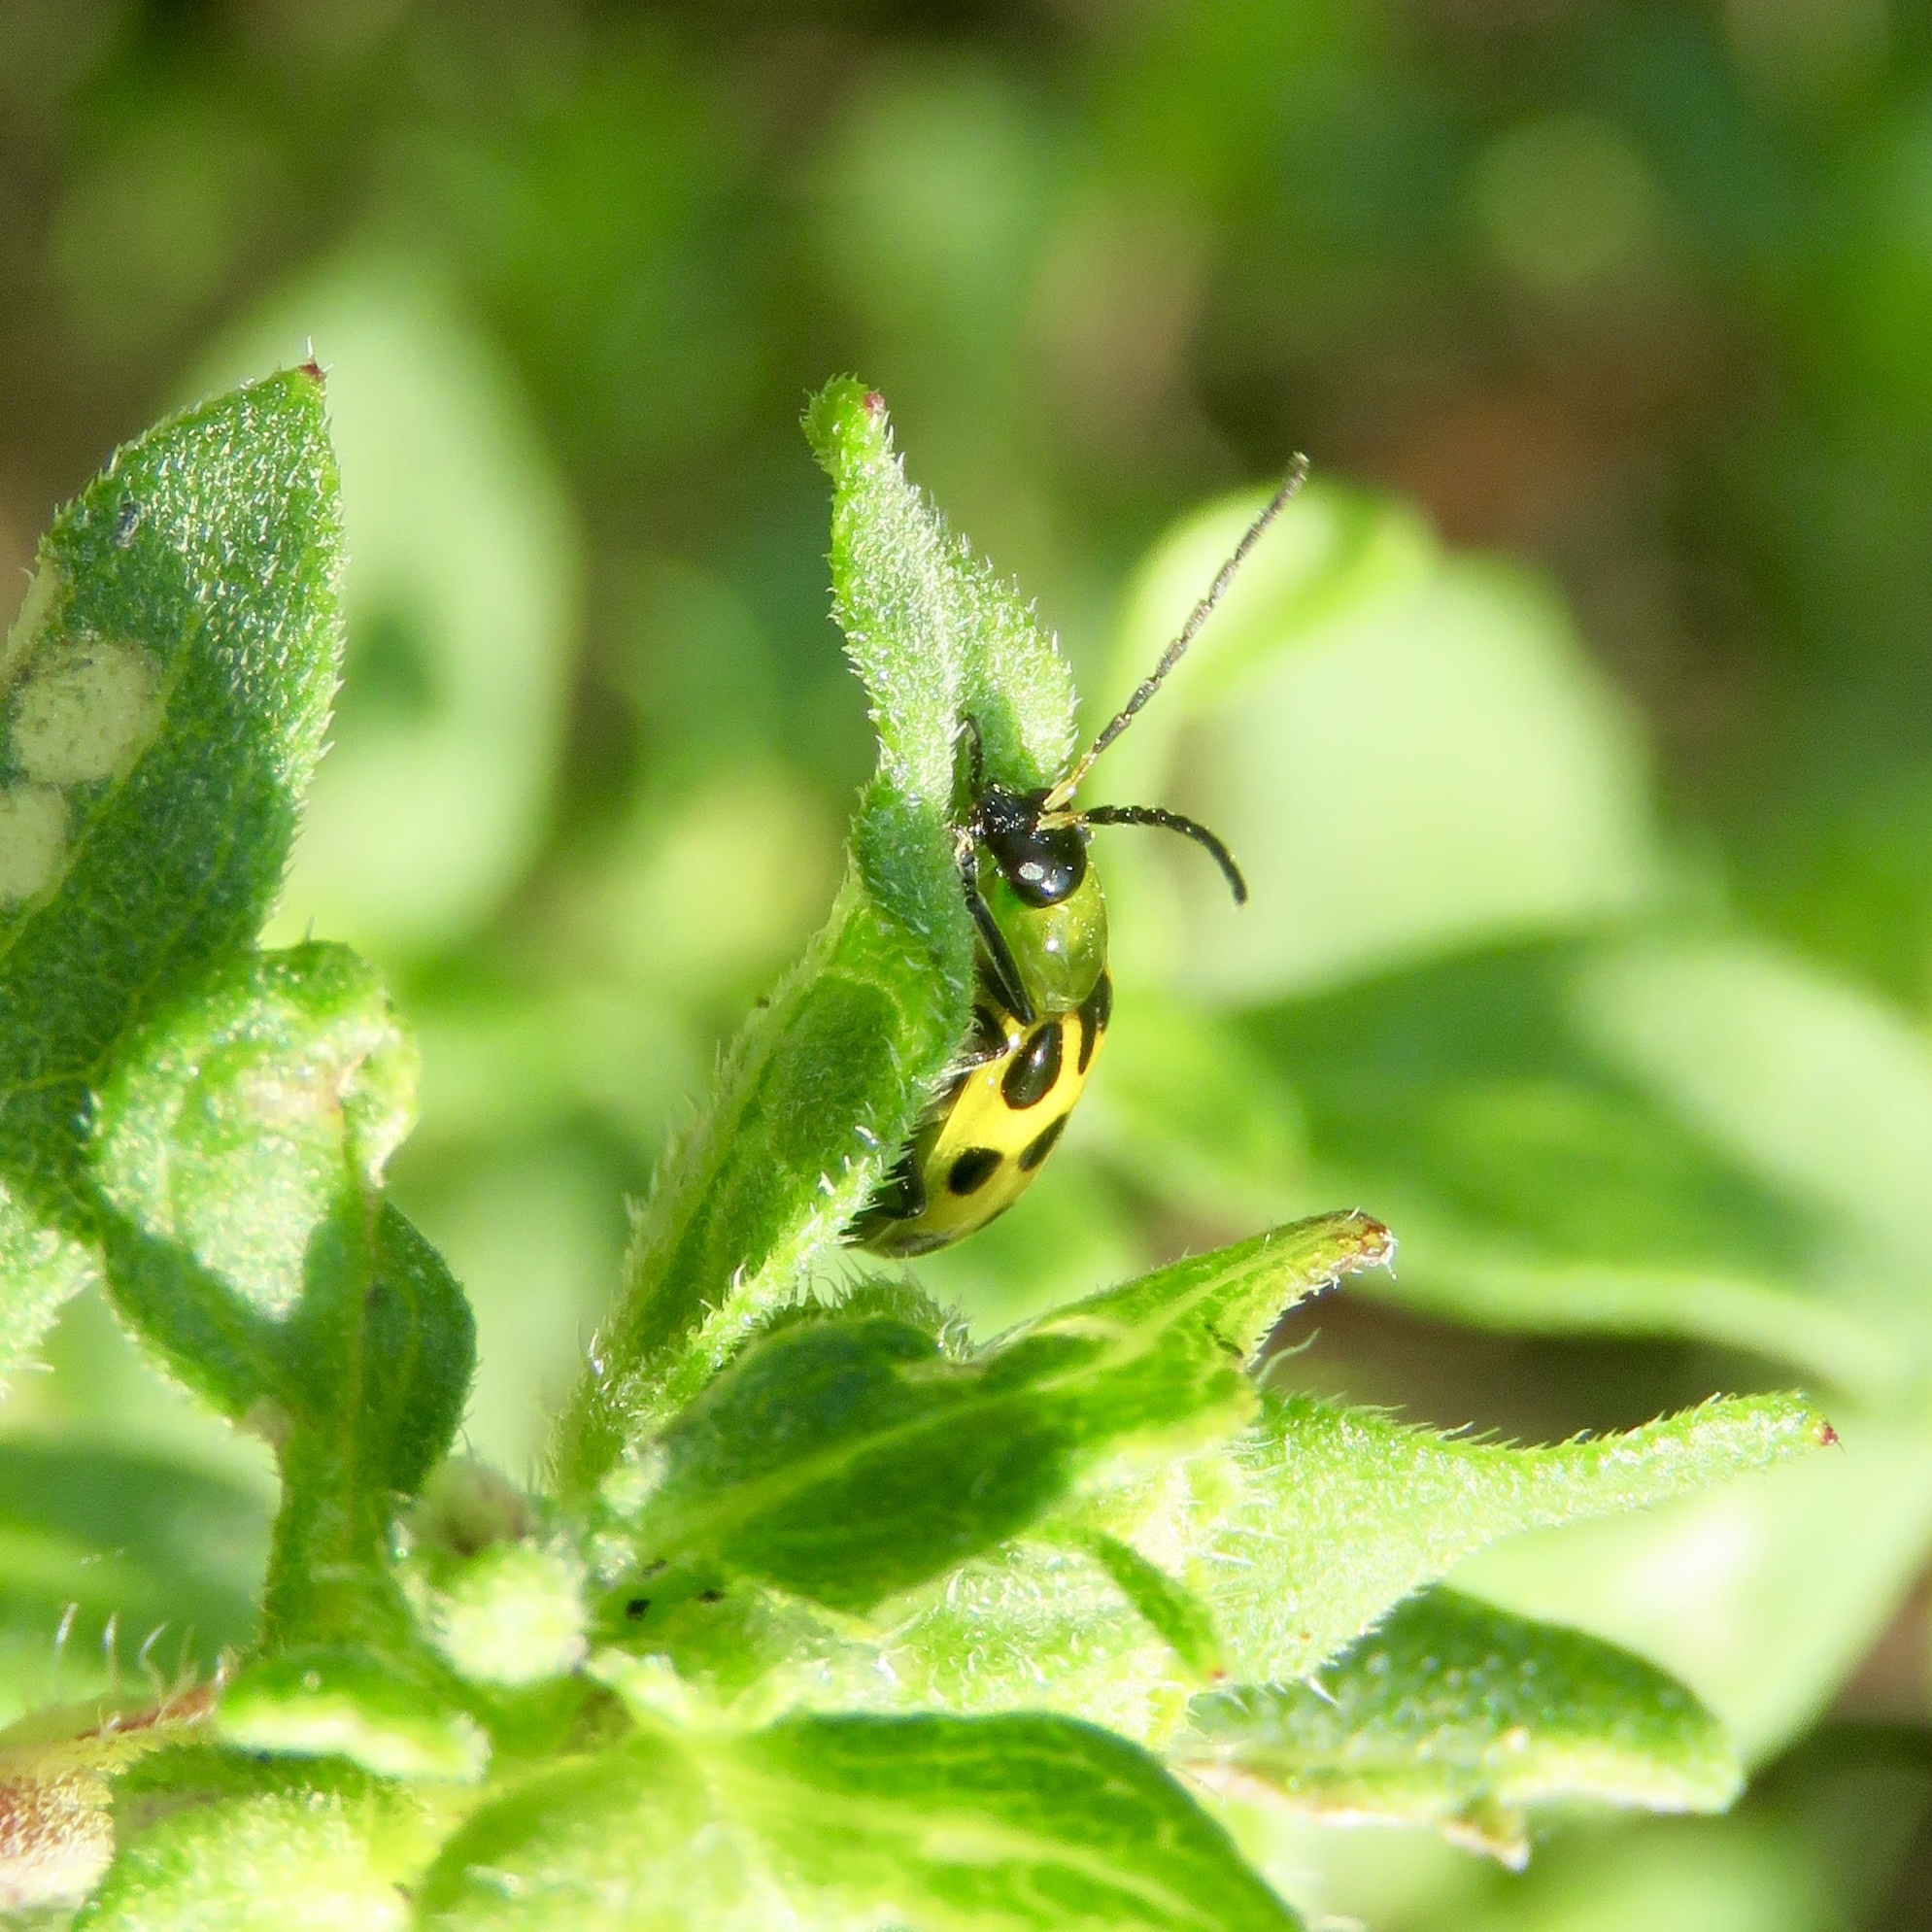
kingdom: Animalia
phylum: Arthropoda
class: Insecta
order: Coleoptera
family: Chrysomelidae
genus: Diabrotica
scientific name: Diabrotica undecimpunctata
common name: Spotted cucumber beetle
